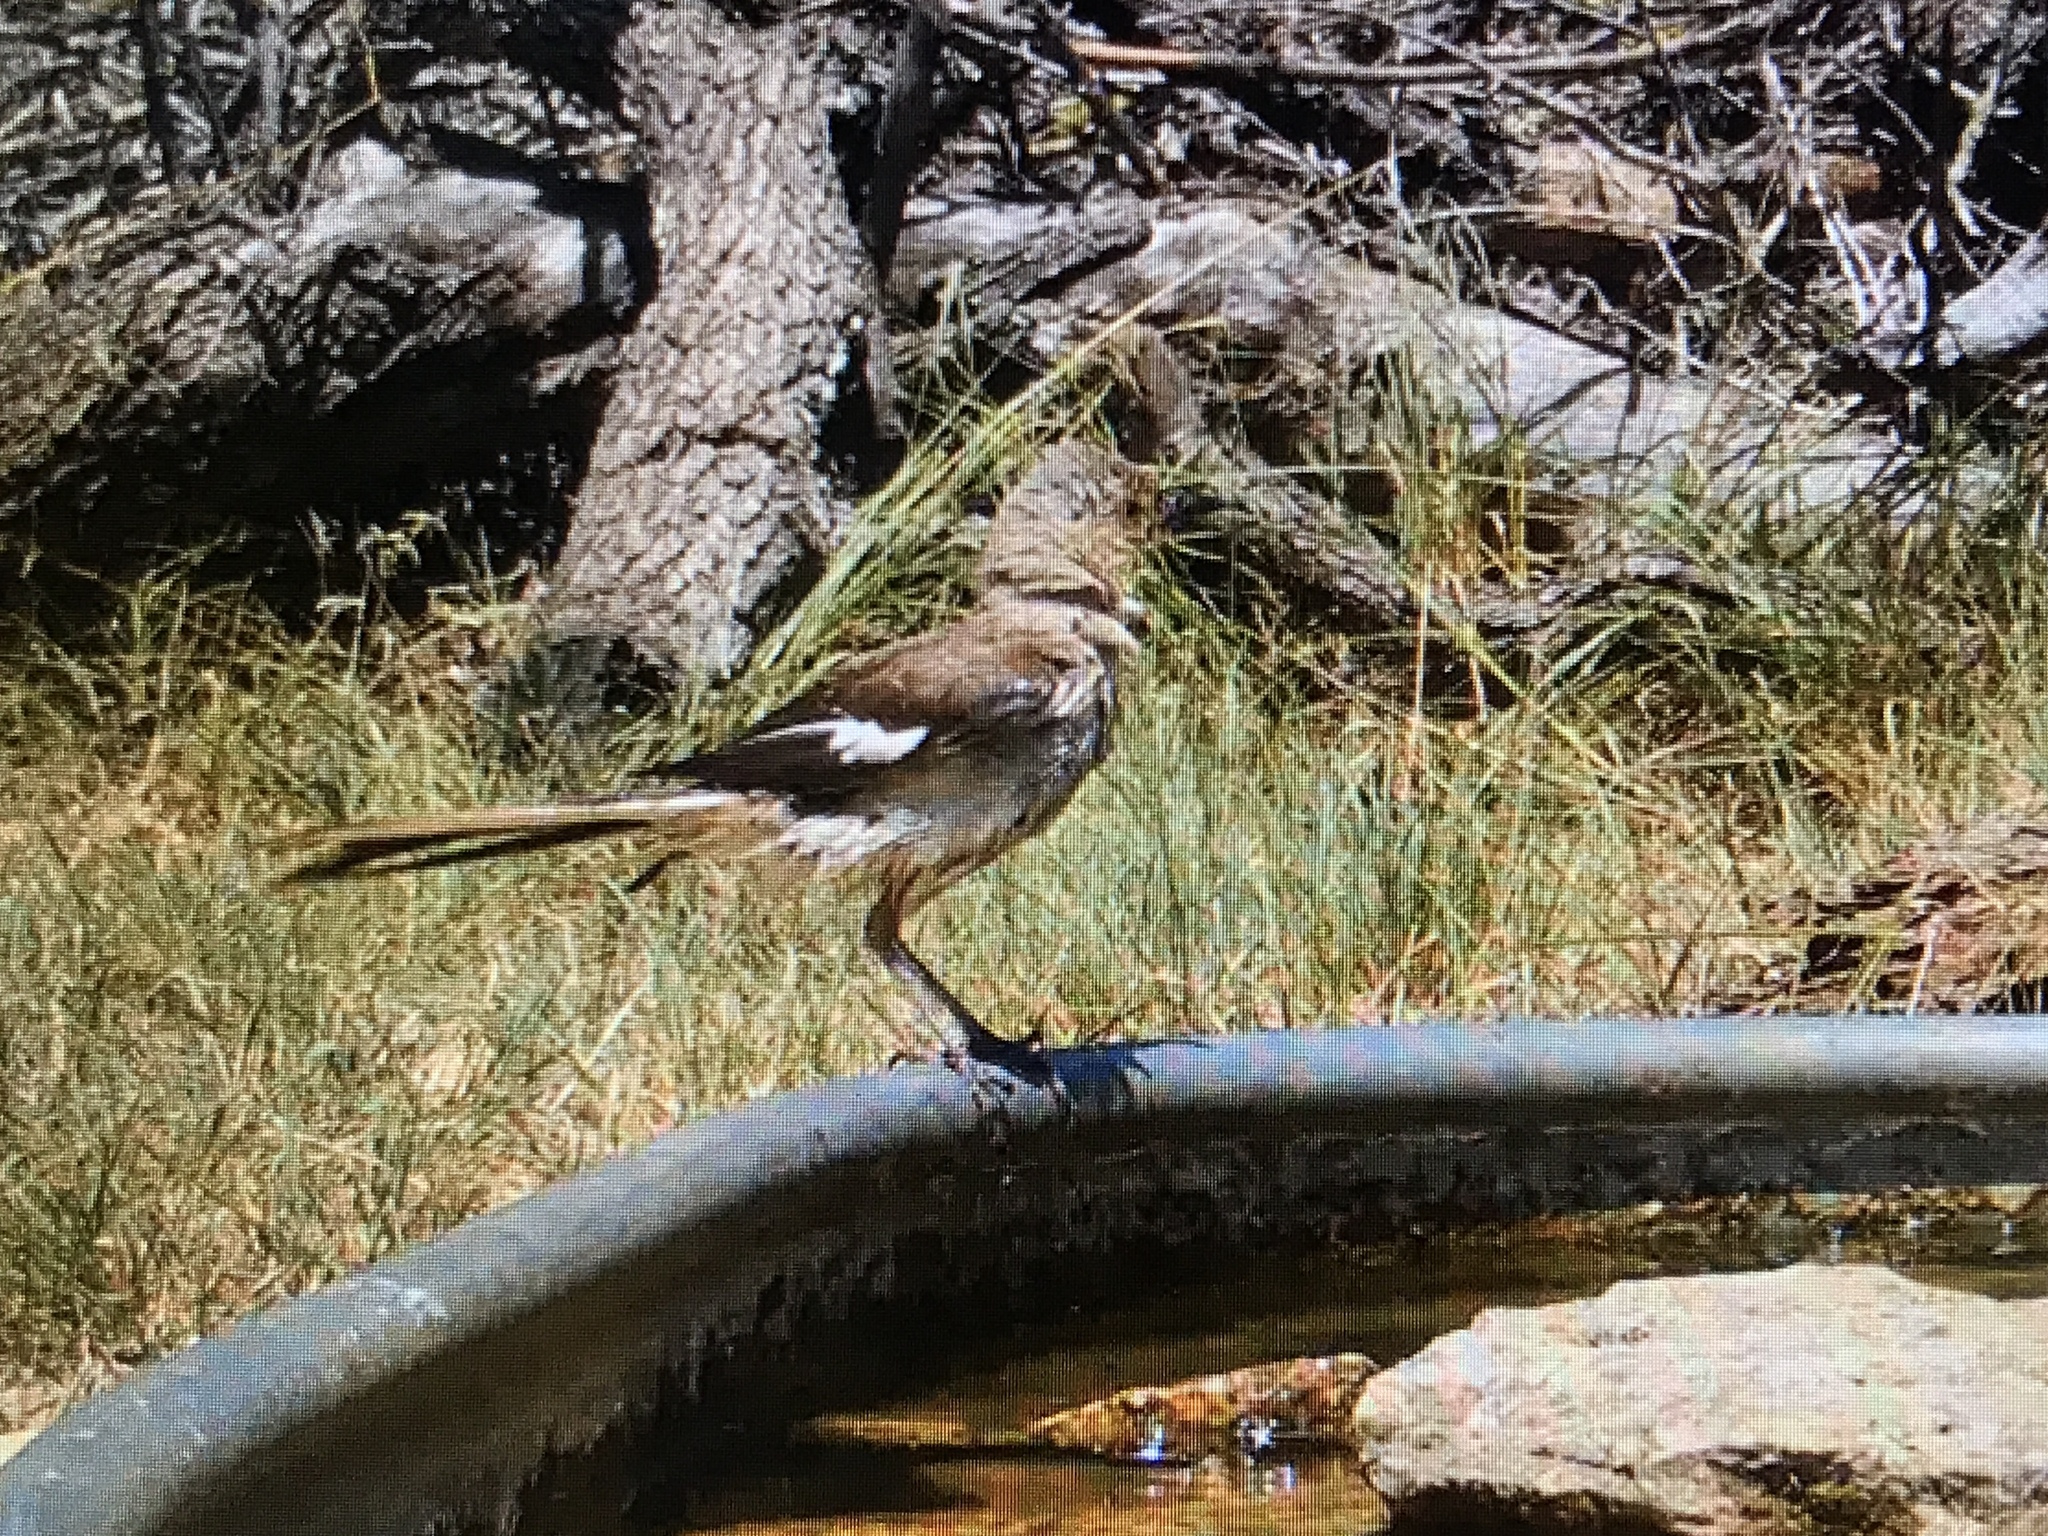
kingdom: Animalia
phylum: Chordata
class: Aves
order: Passeriformes
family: Mimidae
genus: Mimus
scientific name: Mimus polyglottos
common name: Northern mockingbird
